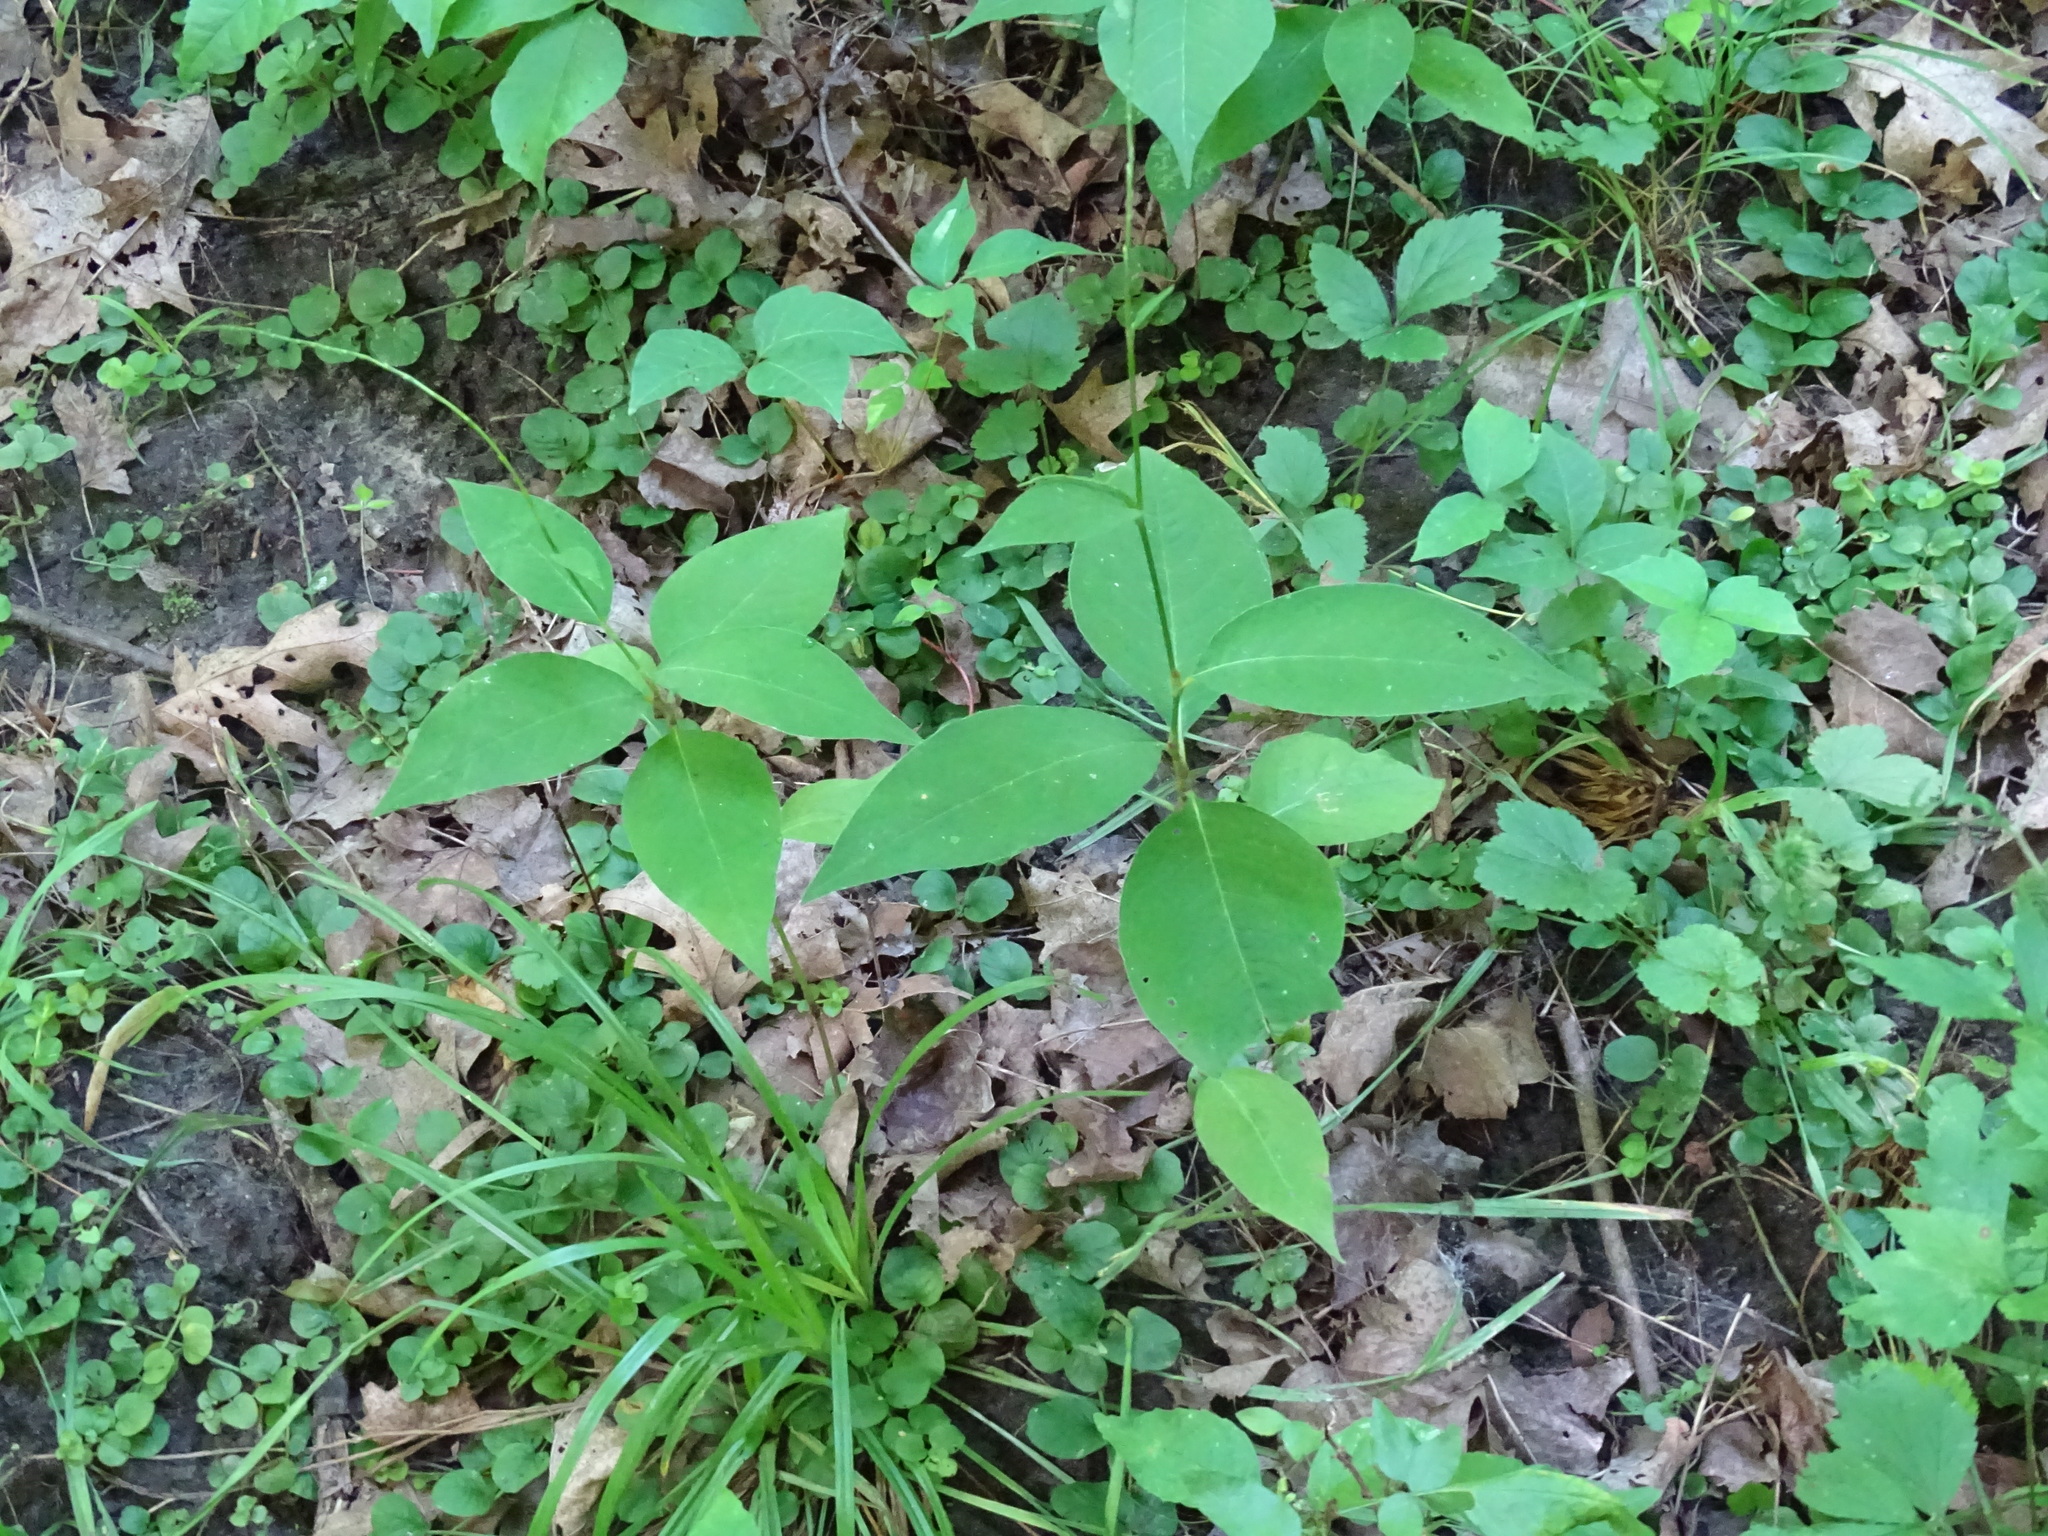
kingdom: Plantae
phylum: Tracheophyta
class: Magnoliopsida
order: Caryophyllales
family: Polygonaceae
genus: Persicaria
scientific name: Persicaria virginiana
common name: Jumpseed
